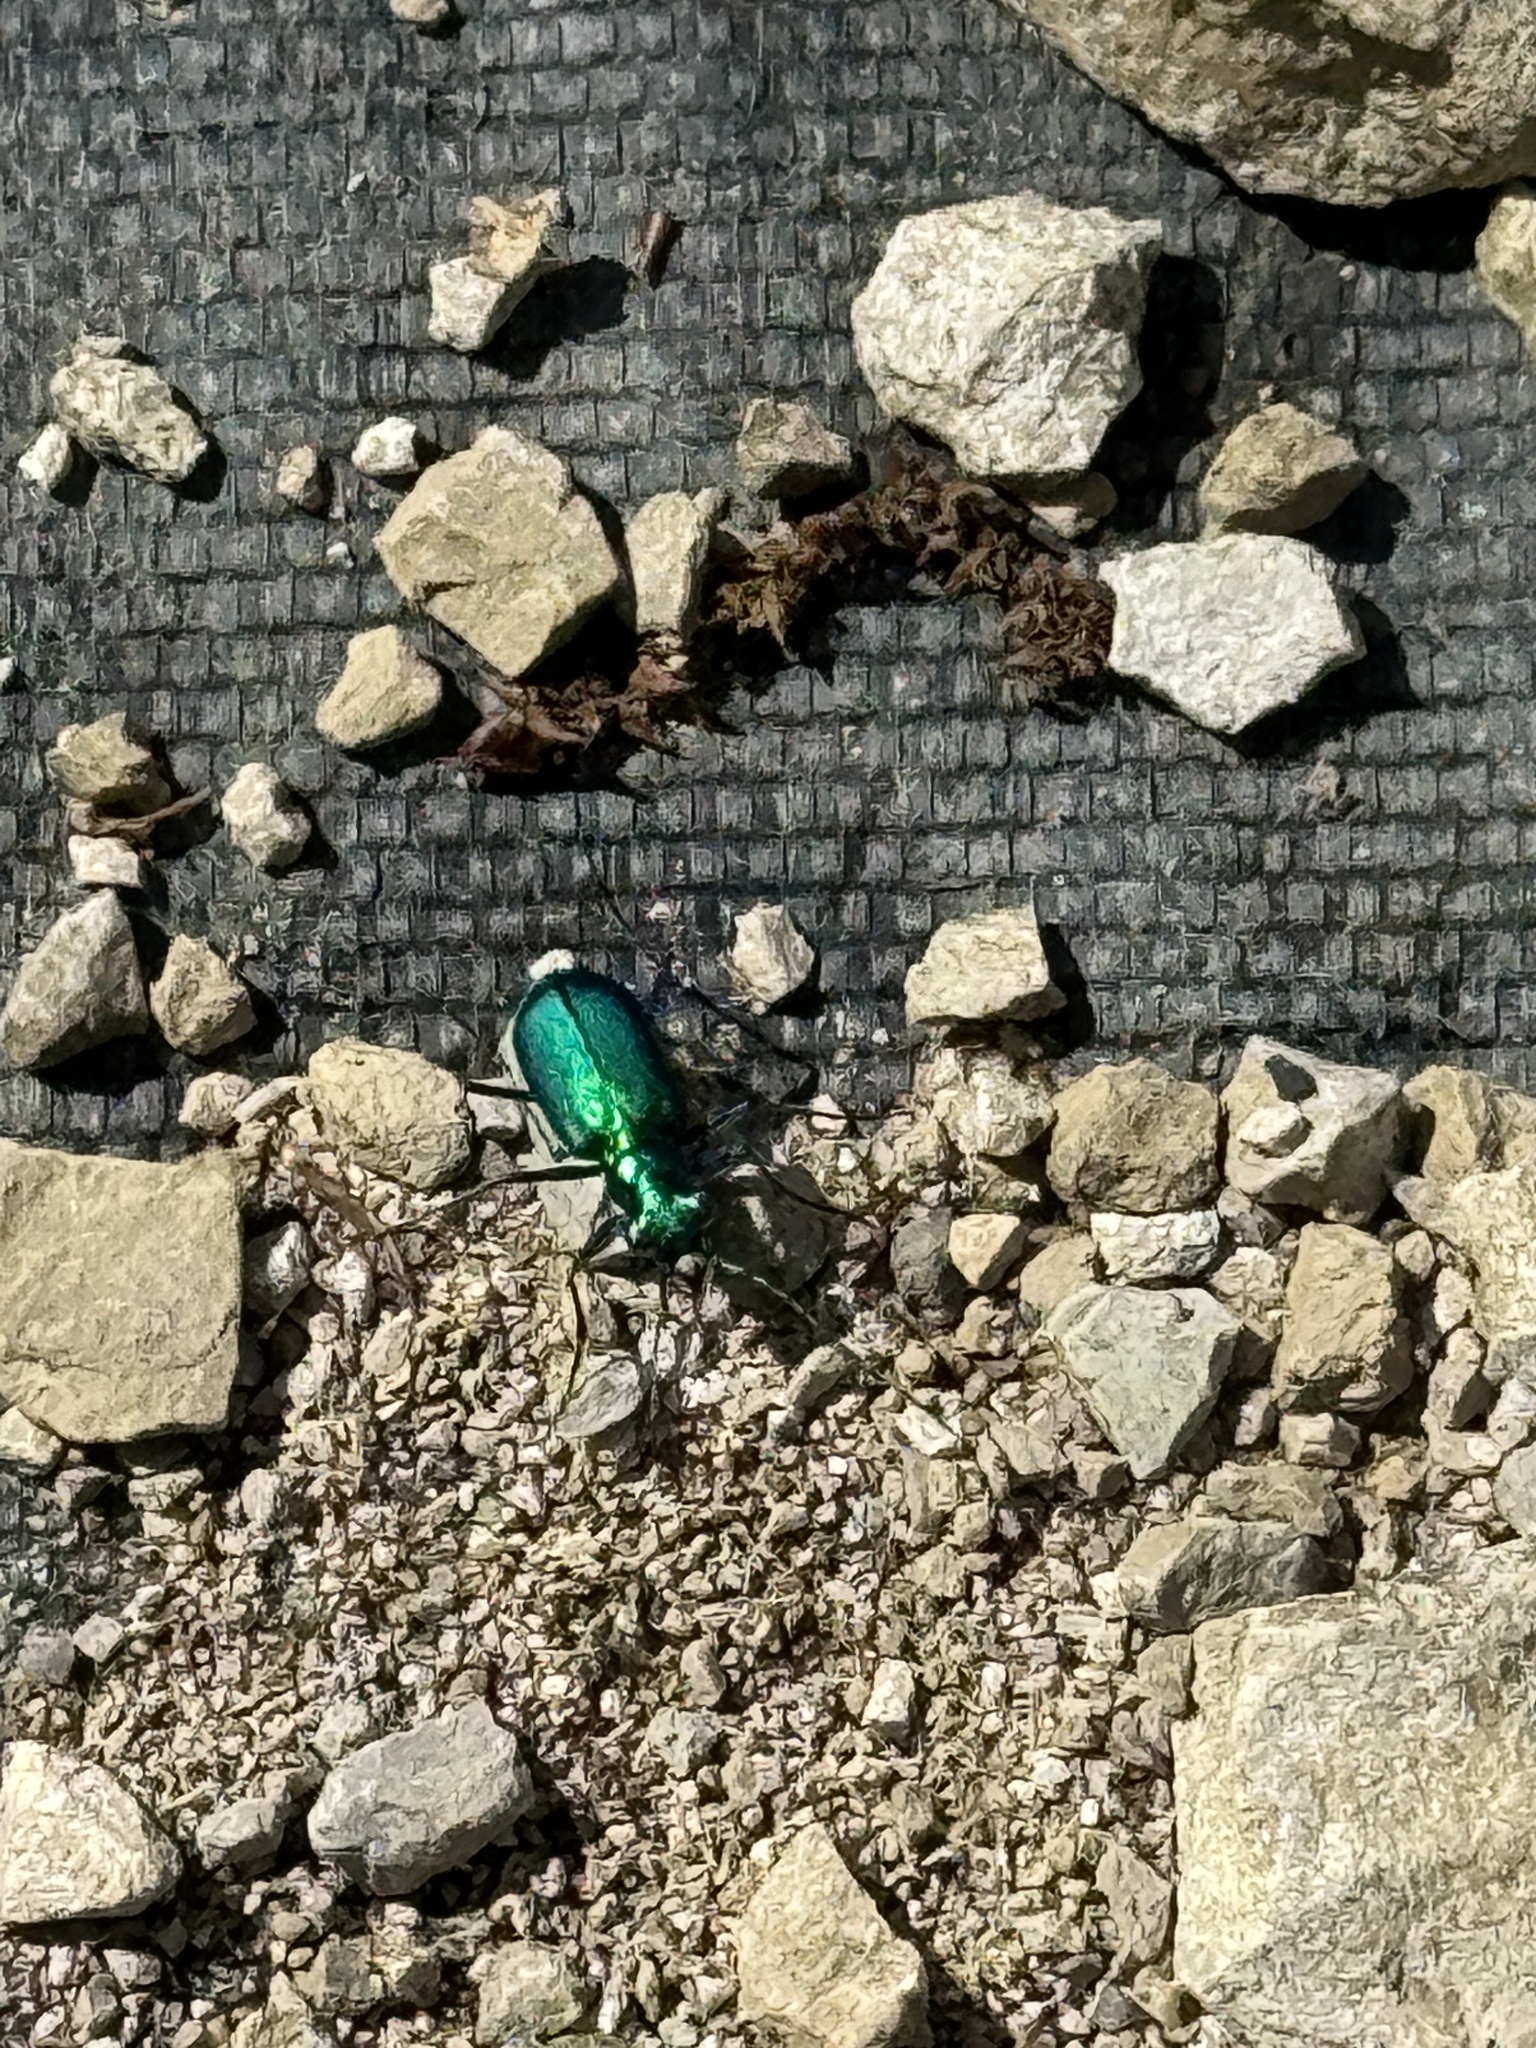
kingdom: Animalia
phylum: Arthropoda
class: Insecta
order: Coleoptera
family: Carabidae
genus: Cicindela
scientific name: Cicindela sexguttata
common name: Six-spotted tiger beetle
